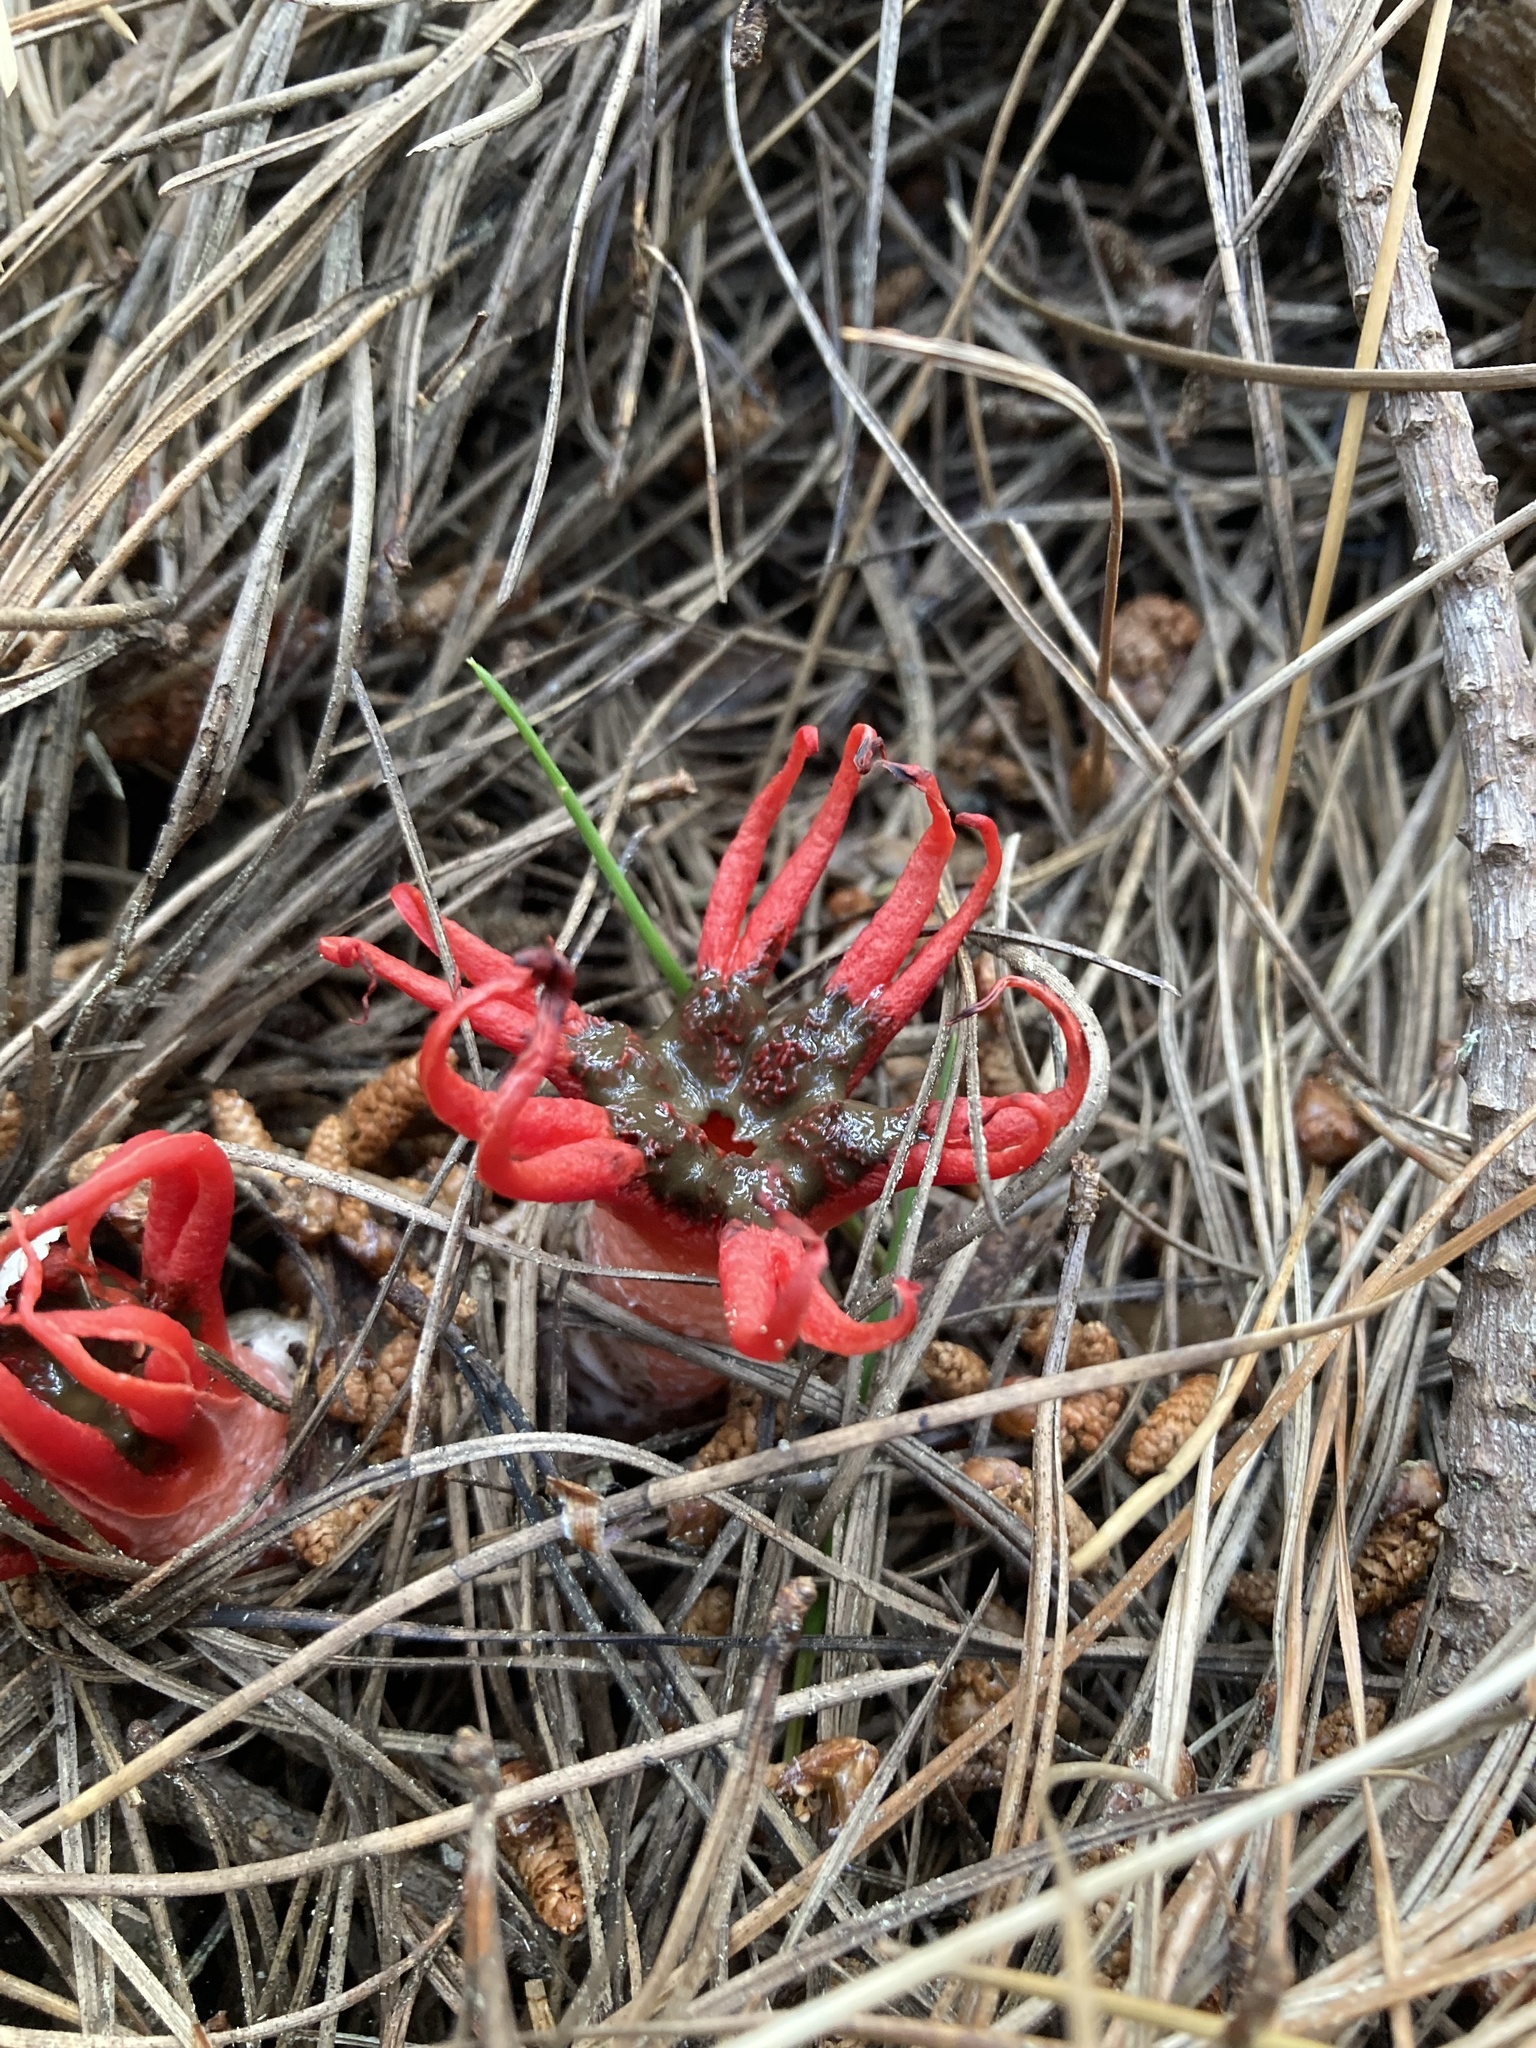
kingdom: Fungi
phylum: Basidiomycota
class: Agaricomycetes
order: Phallales
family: Phallaceae
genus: Aseroe
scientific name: Aseroe rubra
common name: Starfish fungus
